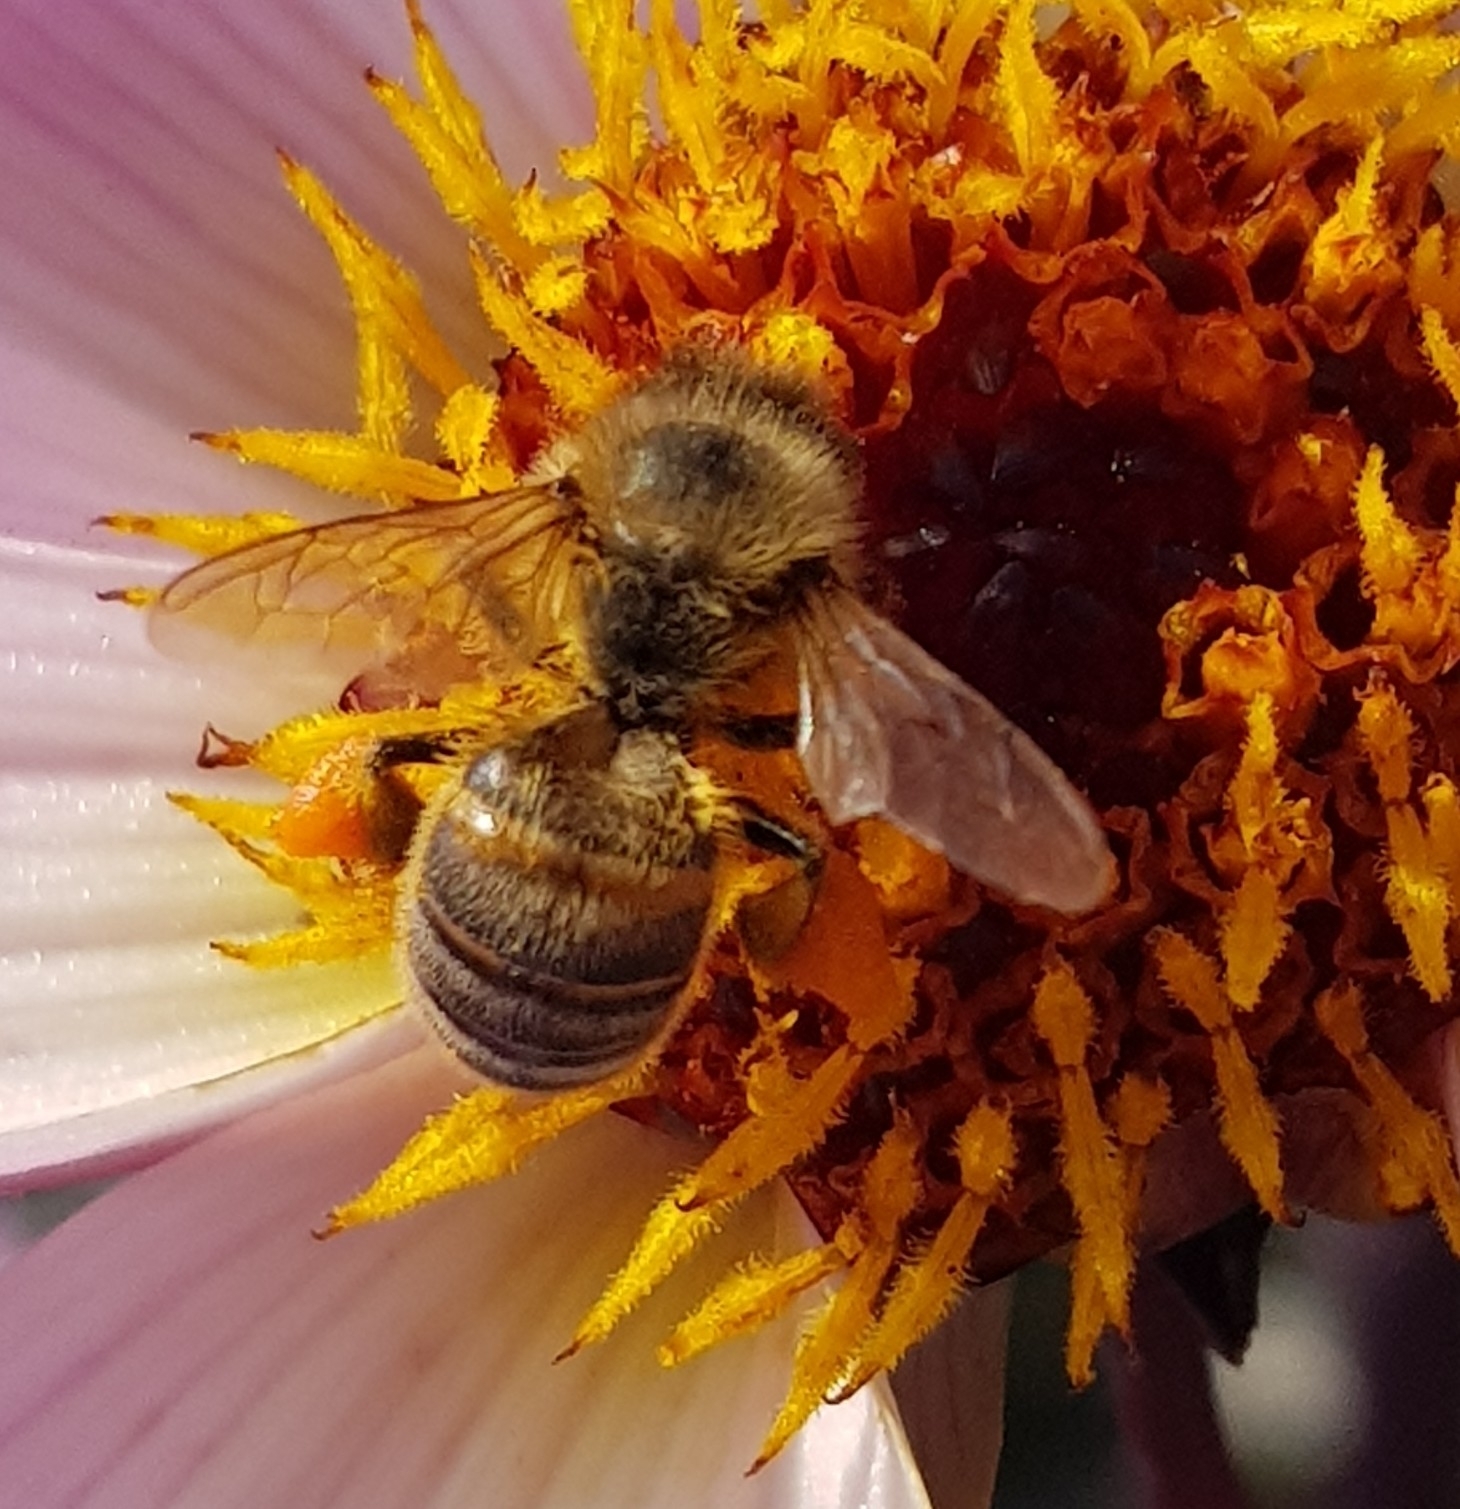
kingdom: Animalia
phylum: Arthropoda
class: Insecta
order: Hymenoptera
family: Apidae
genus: Apis
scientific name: Apis mellifera
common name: Honey bee
